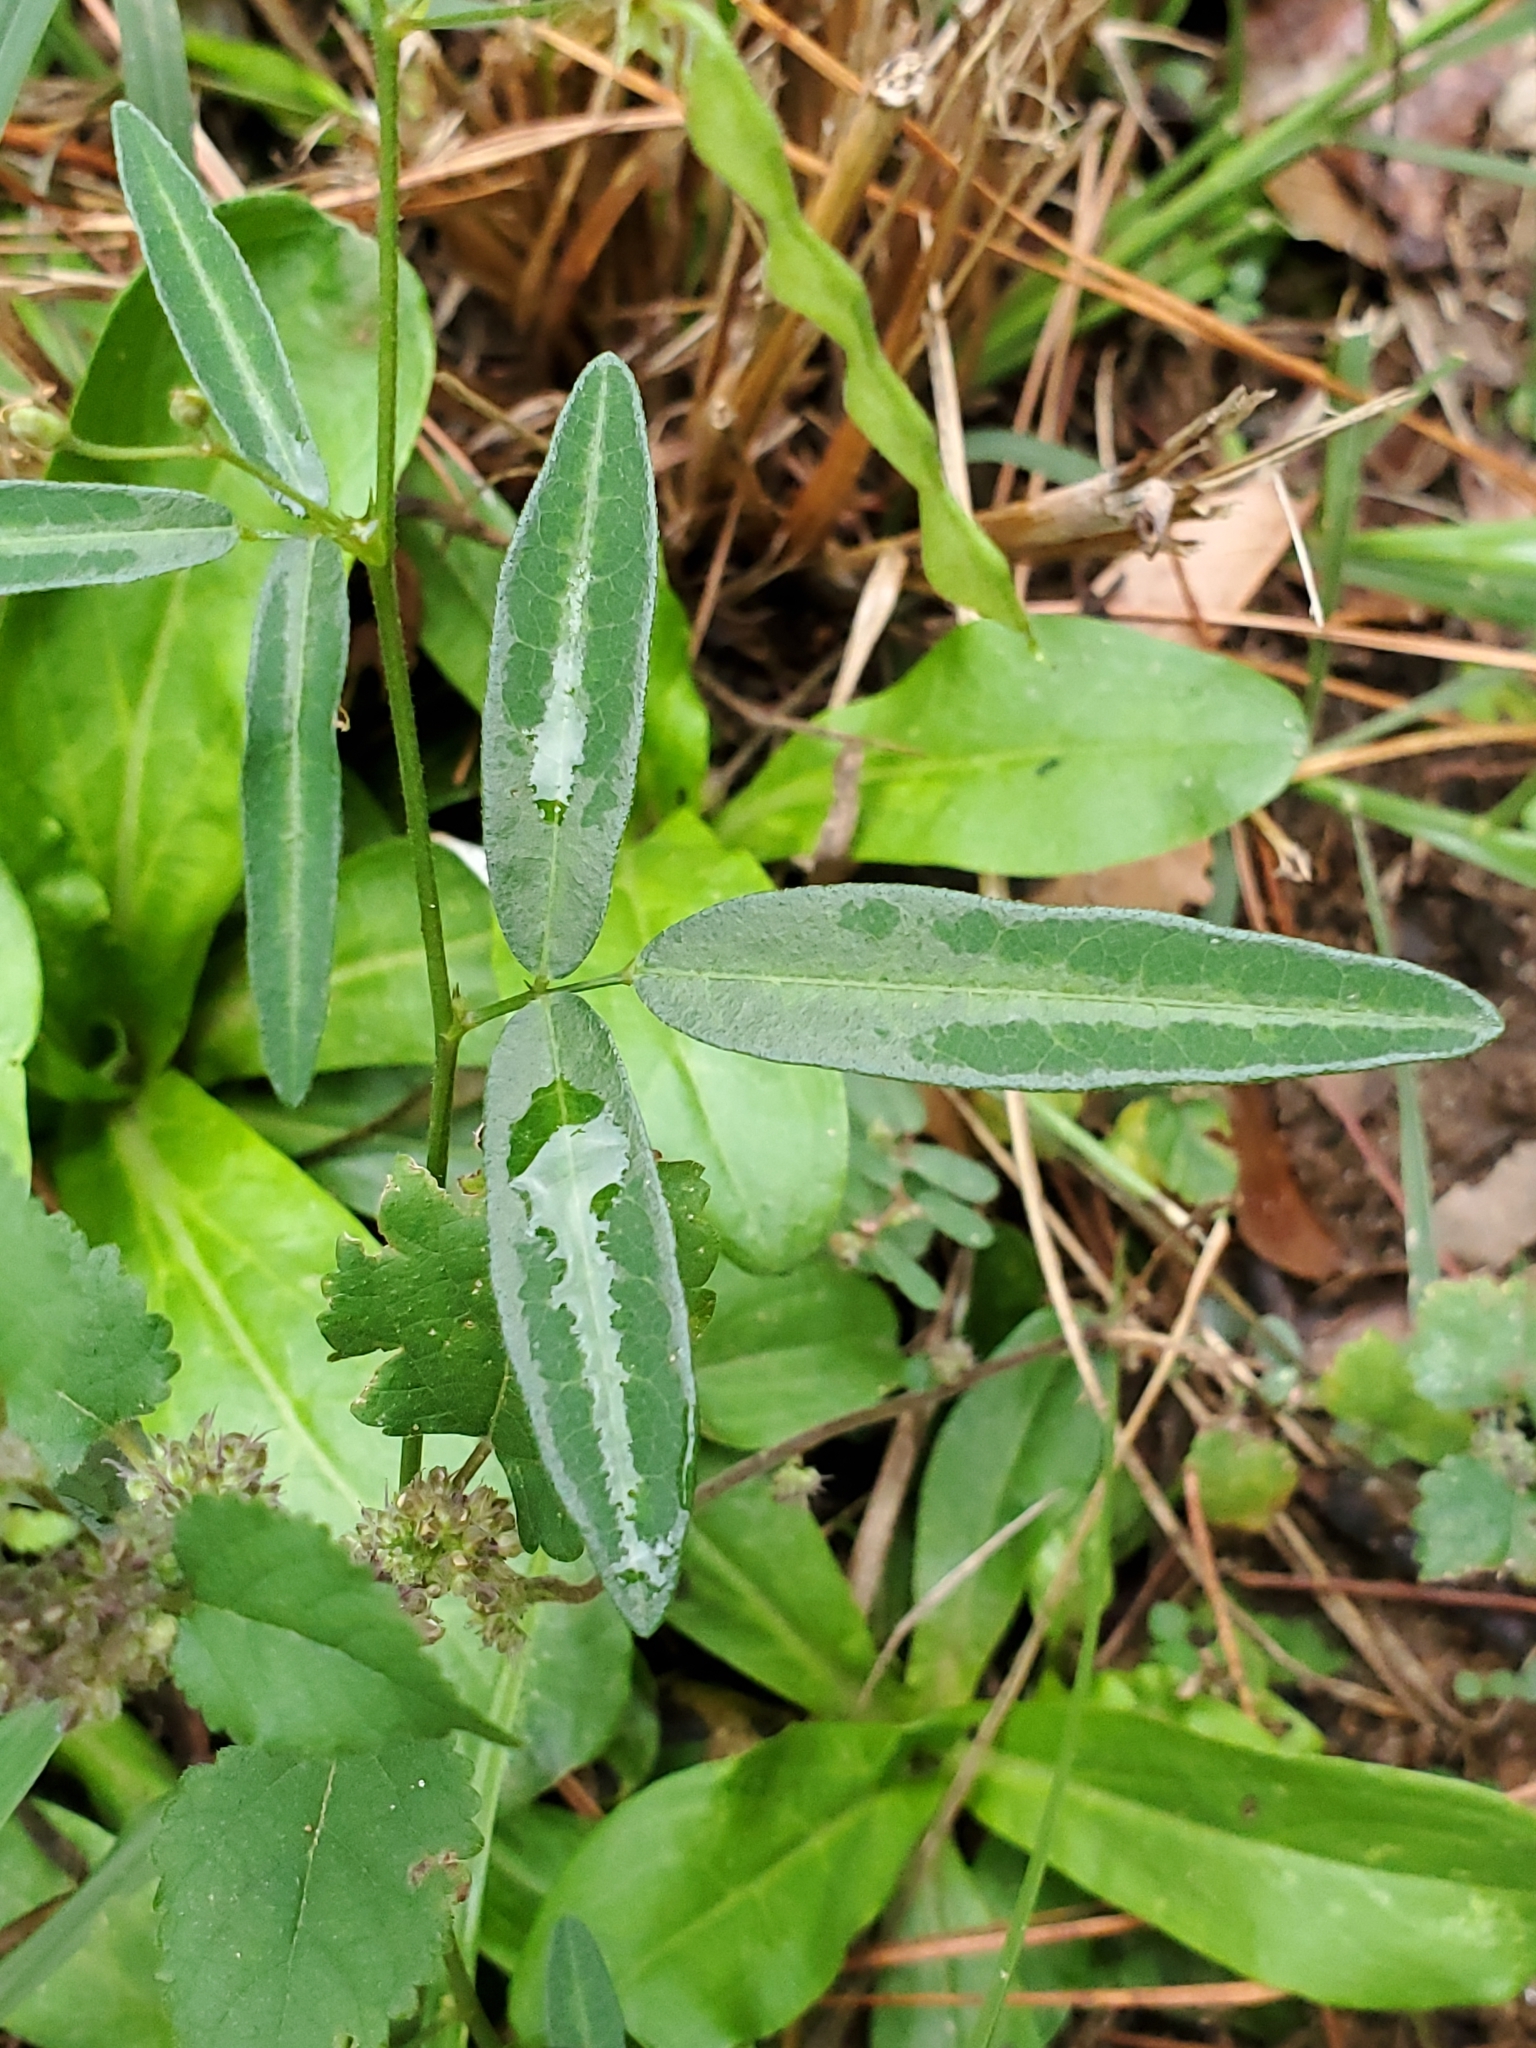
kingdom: Plantae
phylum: Tracheophyta
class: Magnoliopsida
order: Fabales
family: Fabaceae
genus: Desmodium
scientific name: Desmodium paniculatum
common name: Panicled tick-clover
